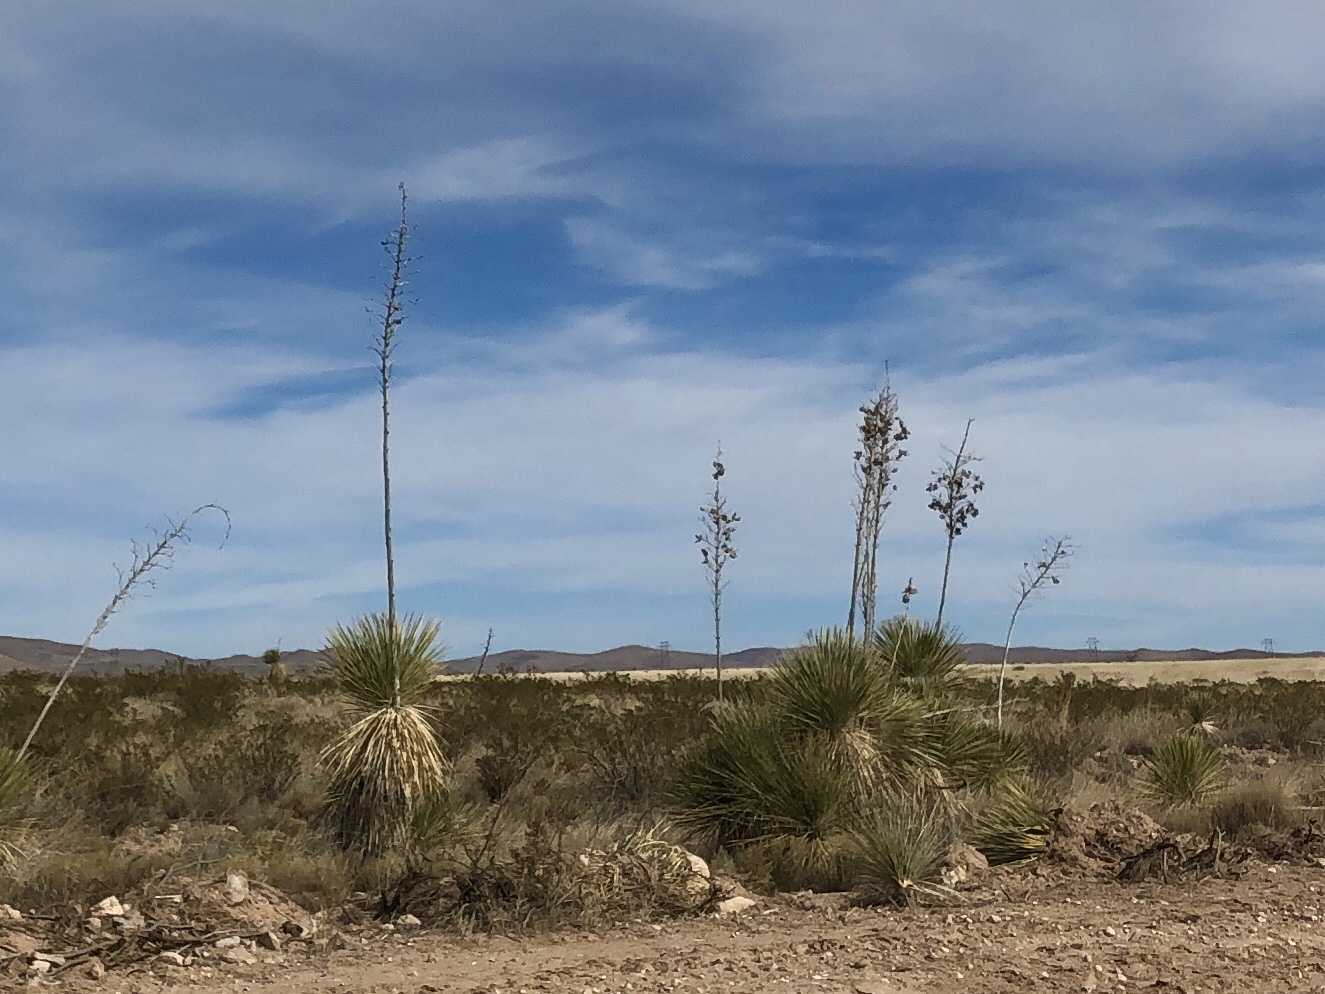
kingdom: Plantae
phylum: Tracheophyta
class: Liliopsida
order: Asparagales
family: Asparagaceae
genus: Yucca
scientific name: Yucca elata
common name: Palmella
